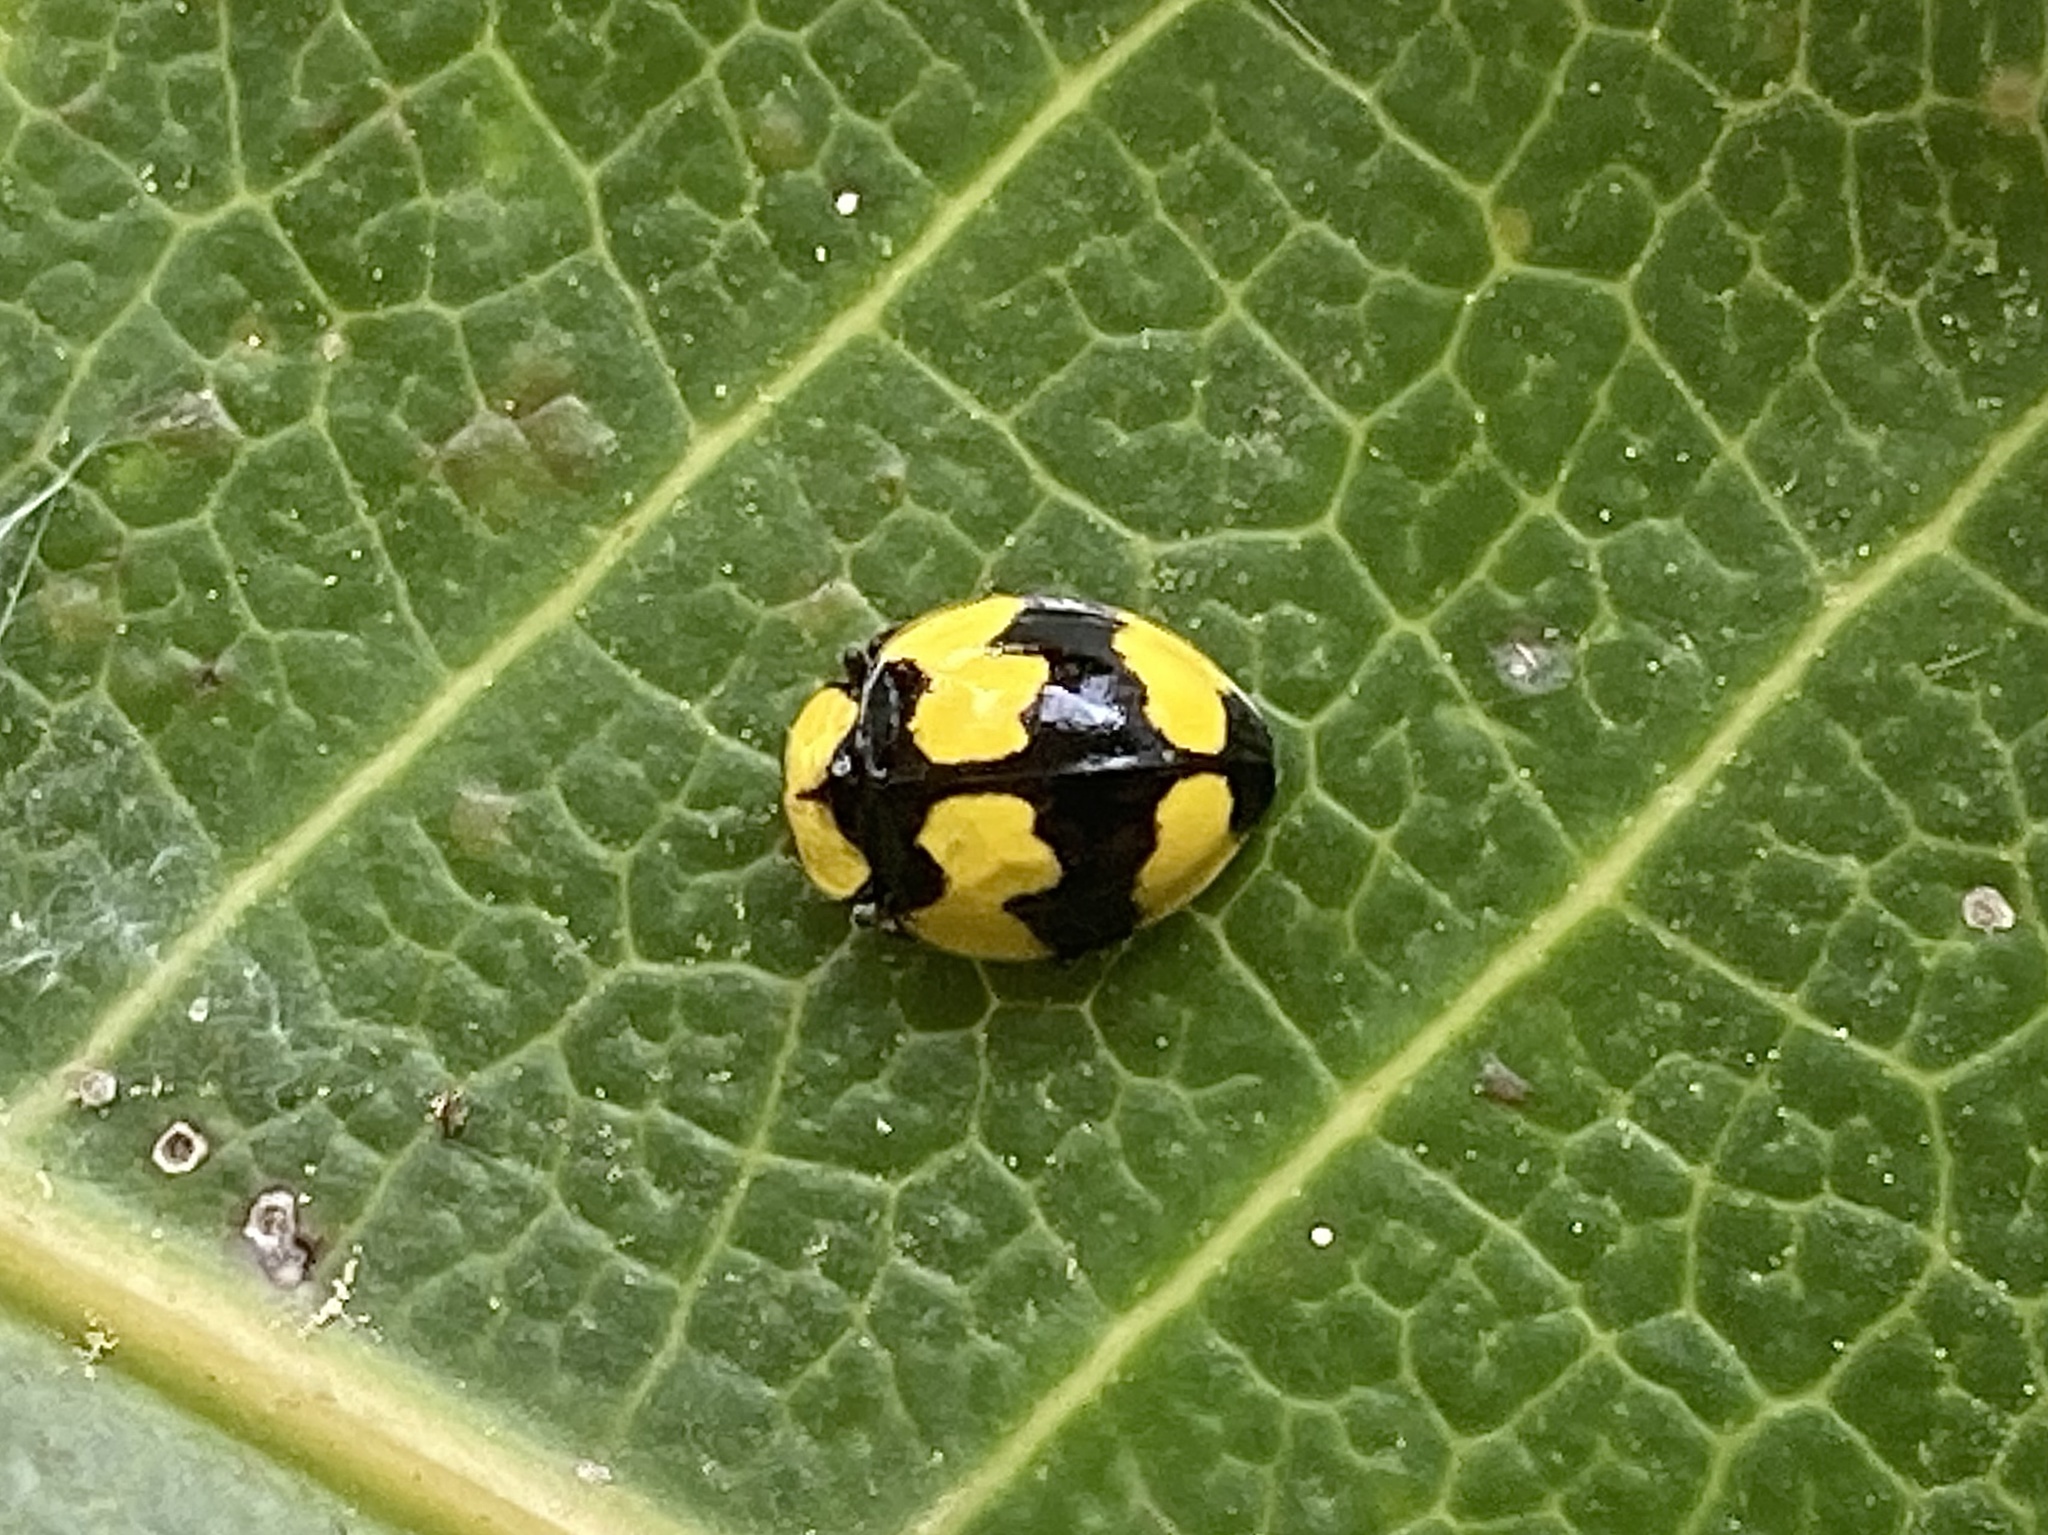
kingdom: Animalia
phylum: Arthropoda
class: Insecta
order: Coleoptera
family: Coccinellidae
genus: Illeis
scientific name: Illeis galbula
